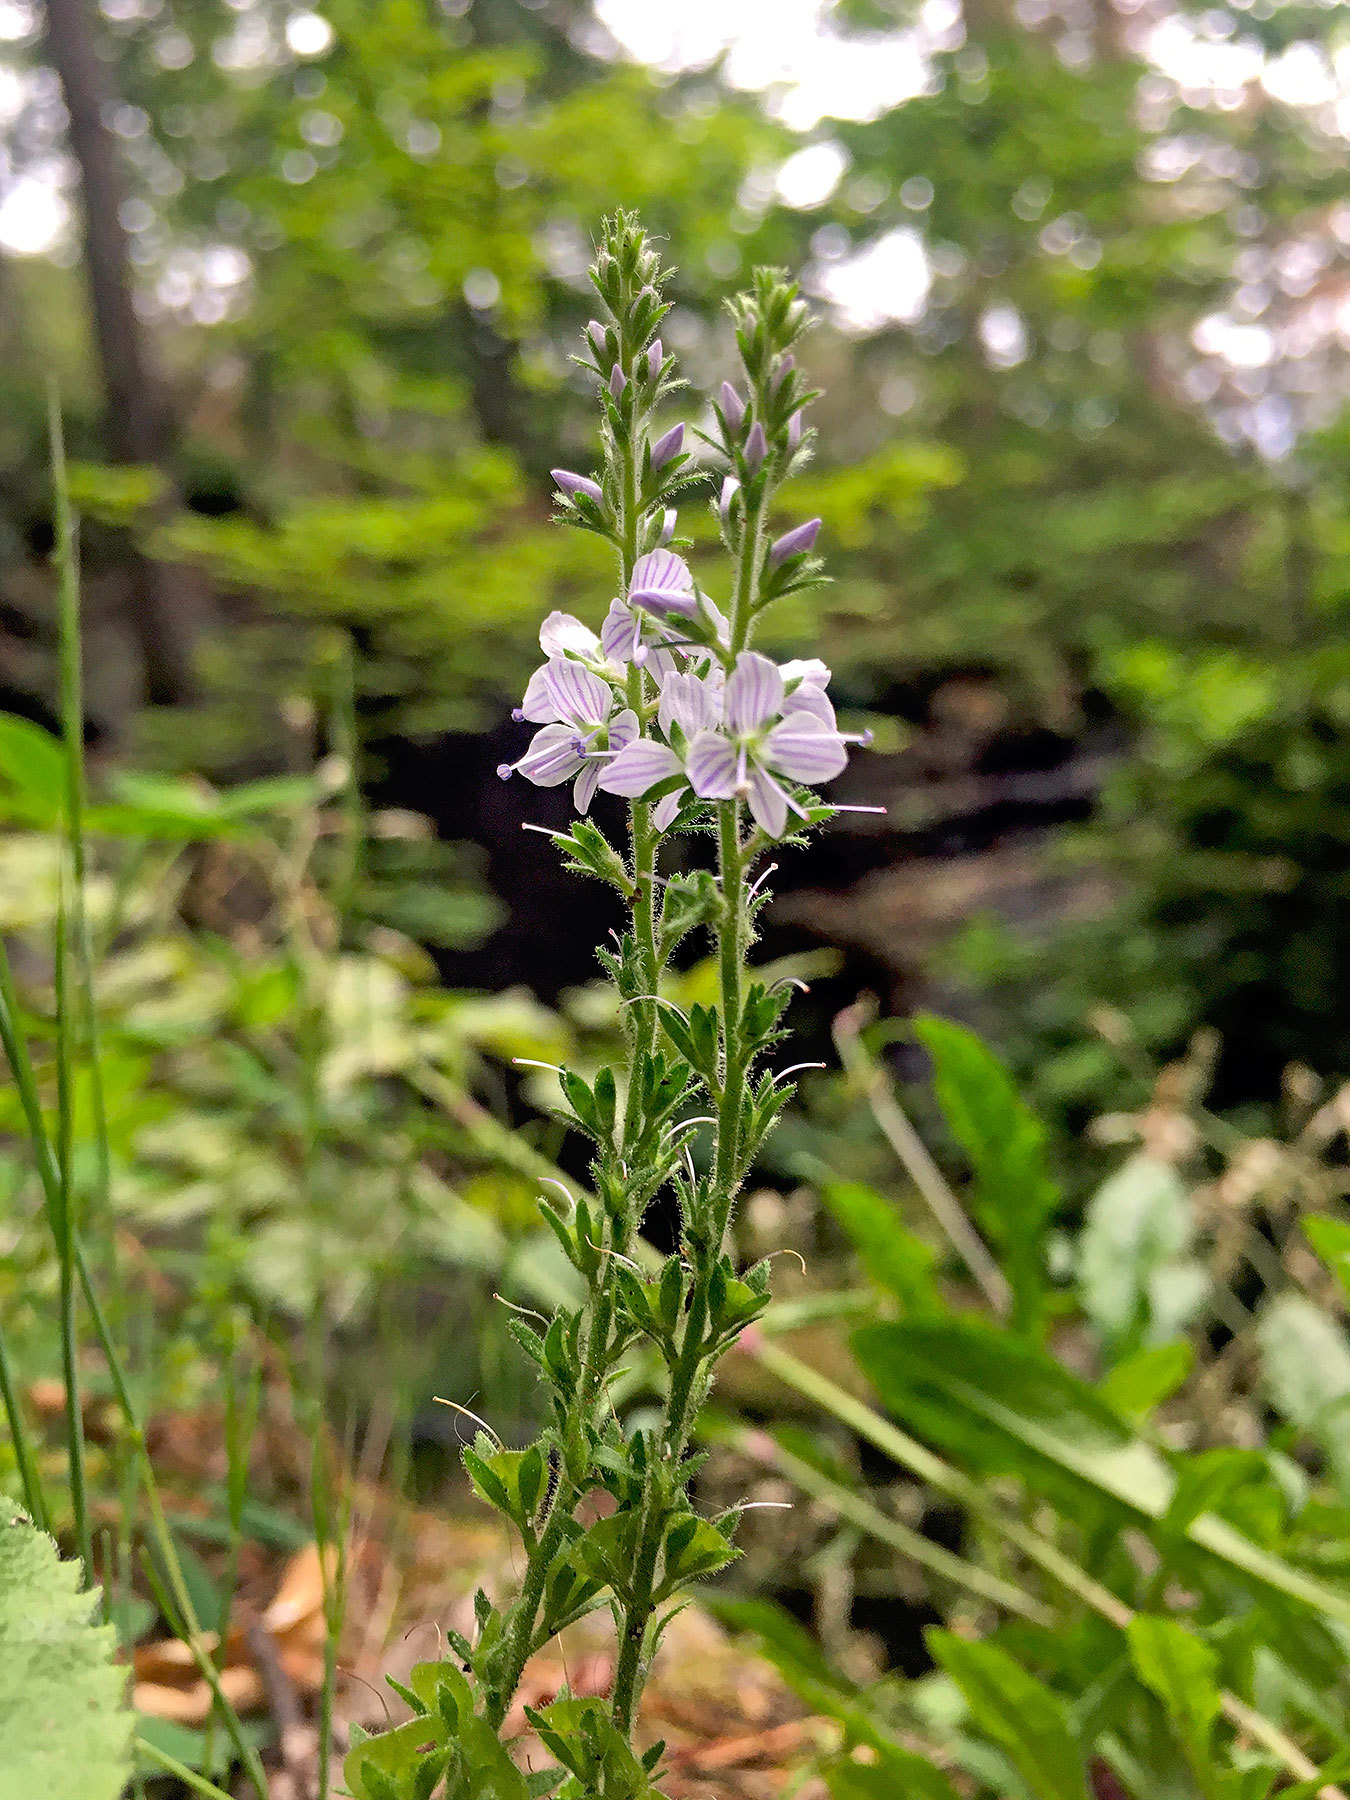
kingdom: Plantae
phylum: Tracheophyta
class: Magnoliopsida
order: Lamiales
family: Plantaginaceae
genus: Veronica
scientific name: Veronica officinalis
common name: Common speedwell
